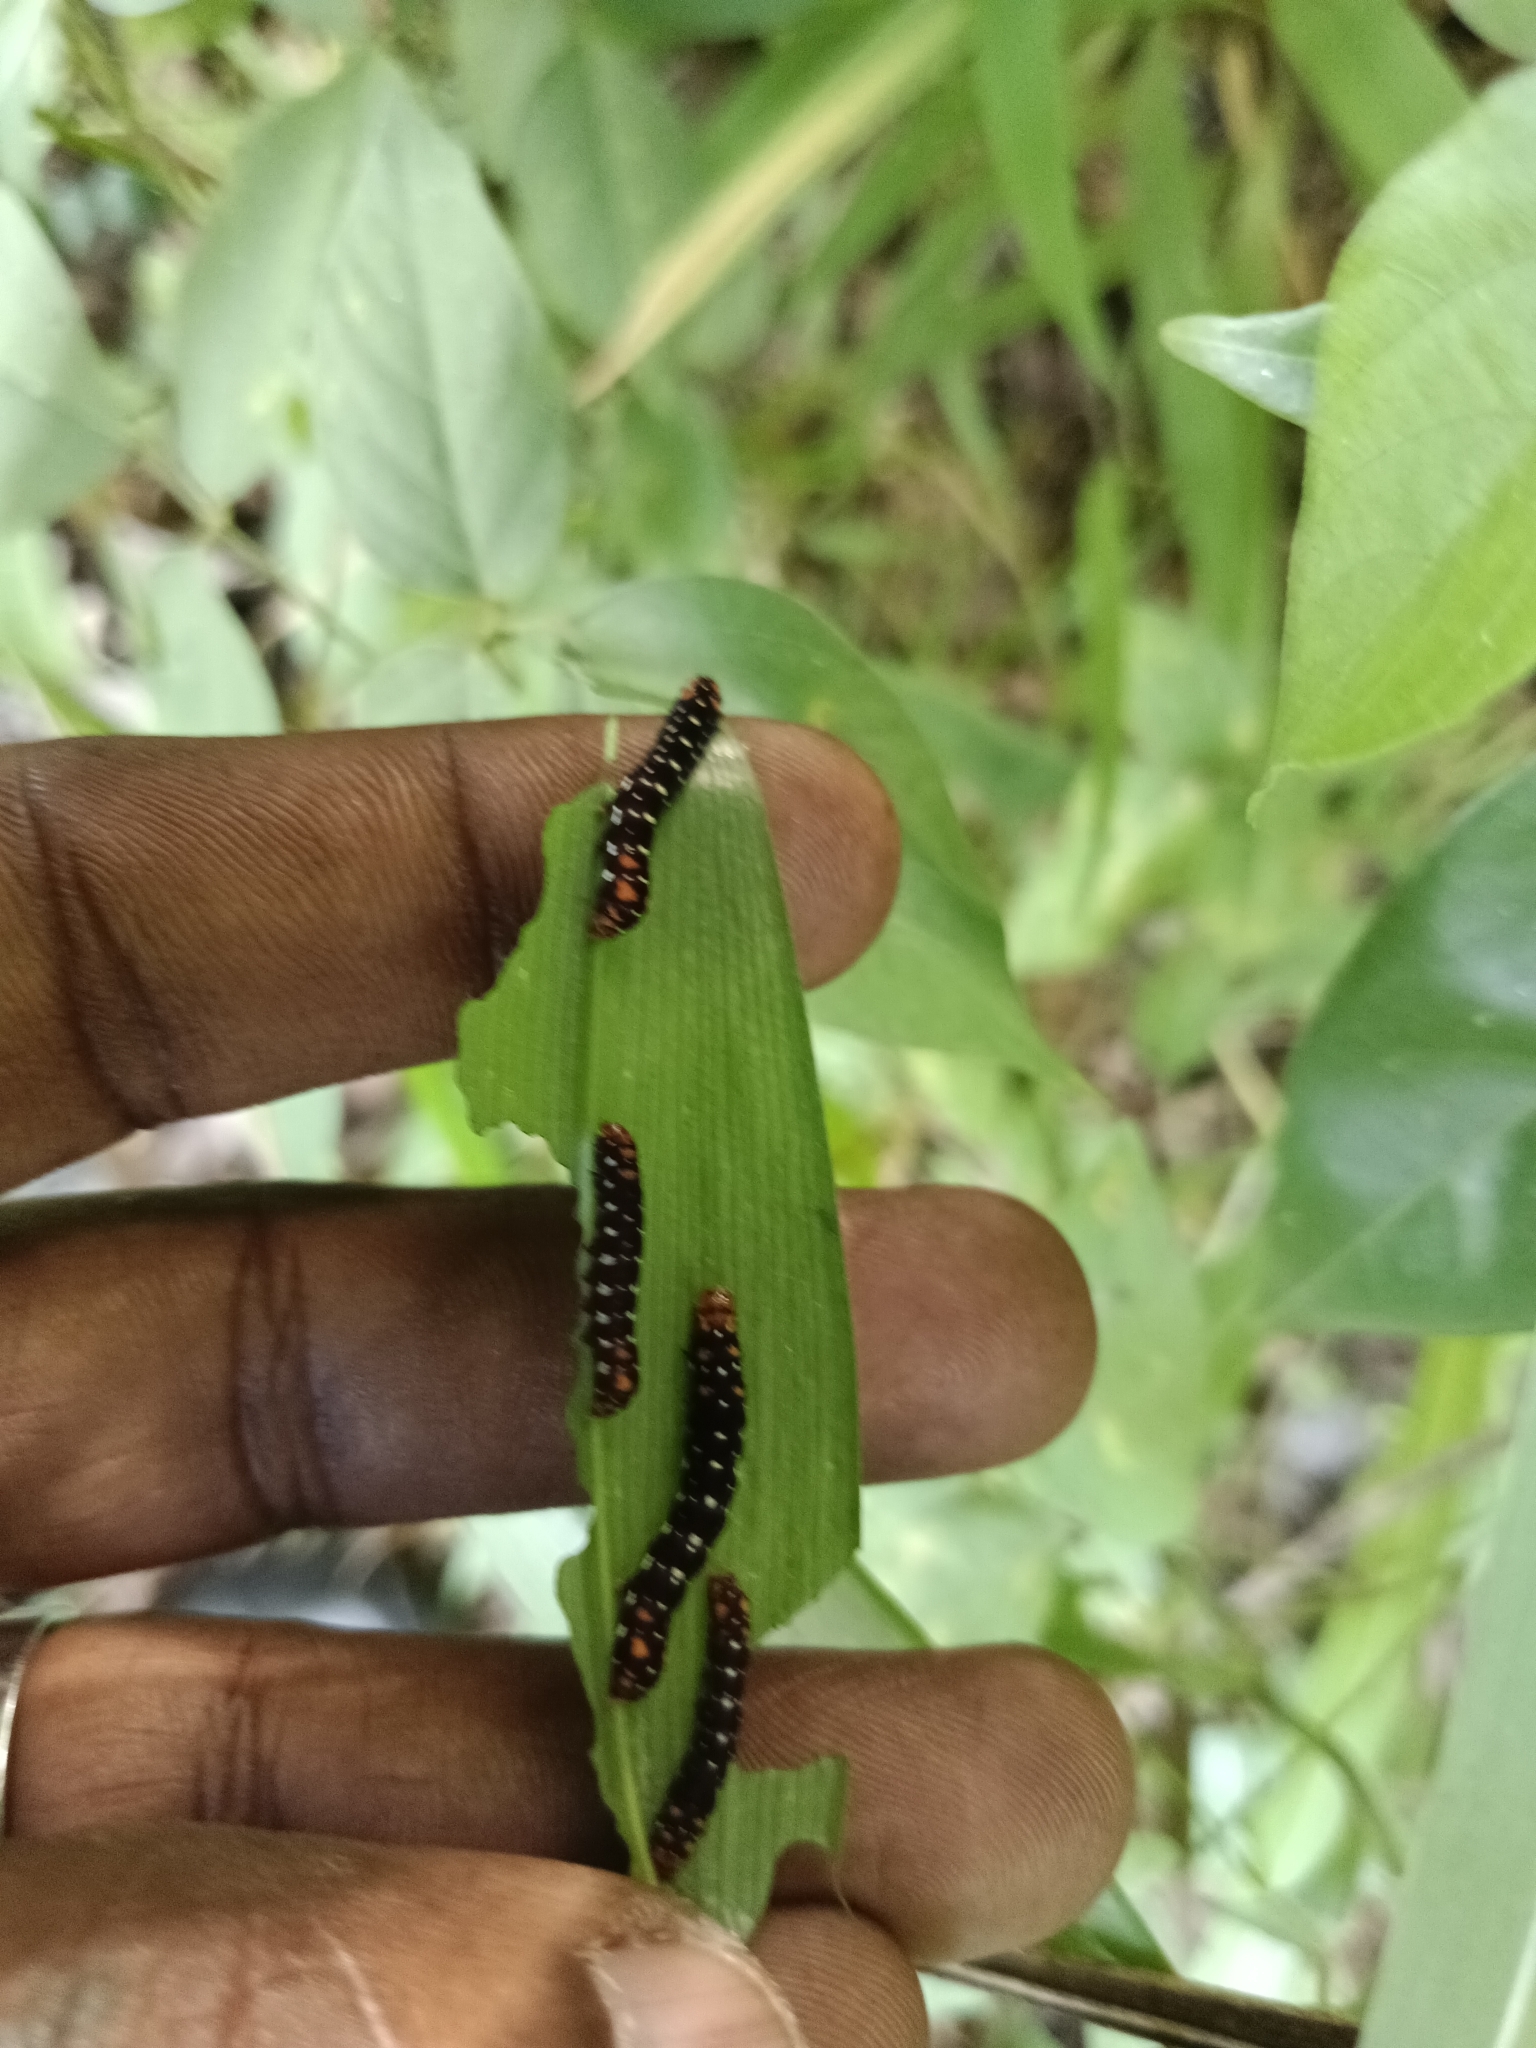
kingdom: Animalia
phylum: Arthropoda
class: Insecta
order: Lepidoptera
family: Noctuidae
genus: Polytela
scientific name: Polytela gloriosae
